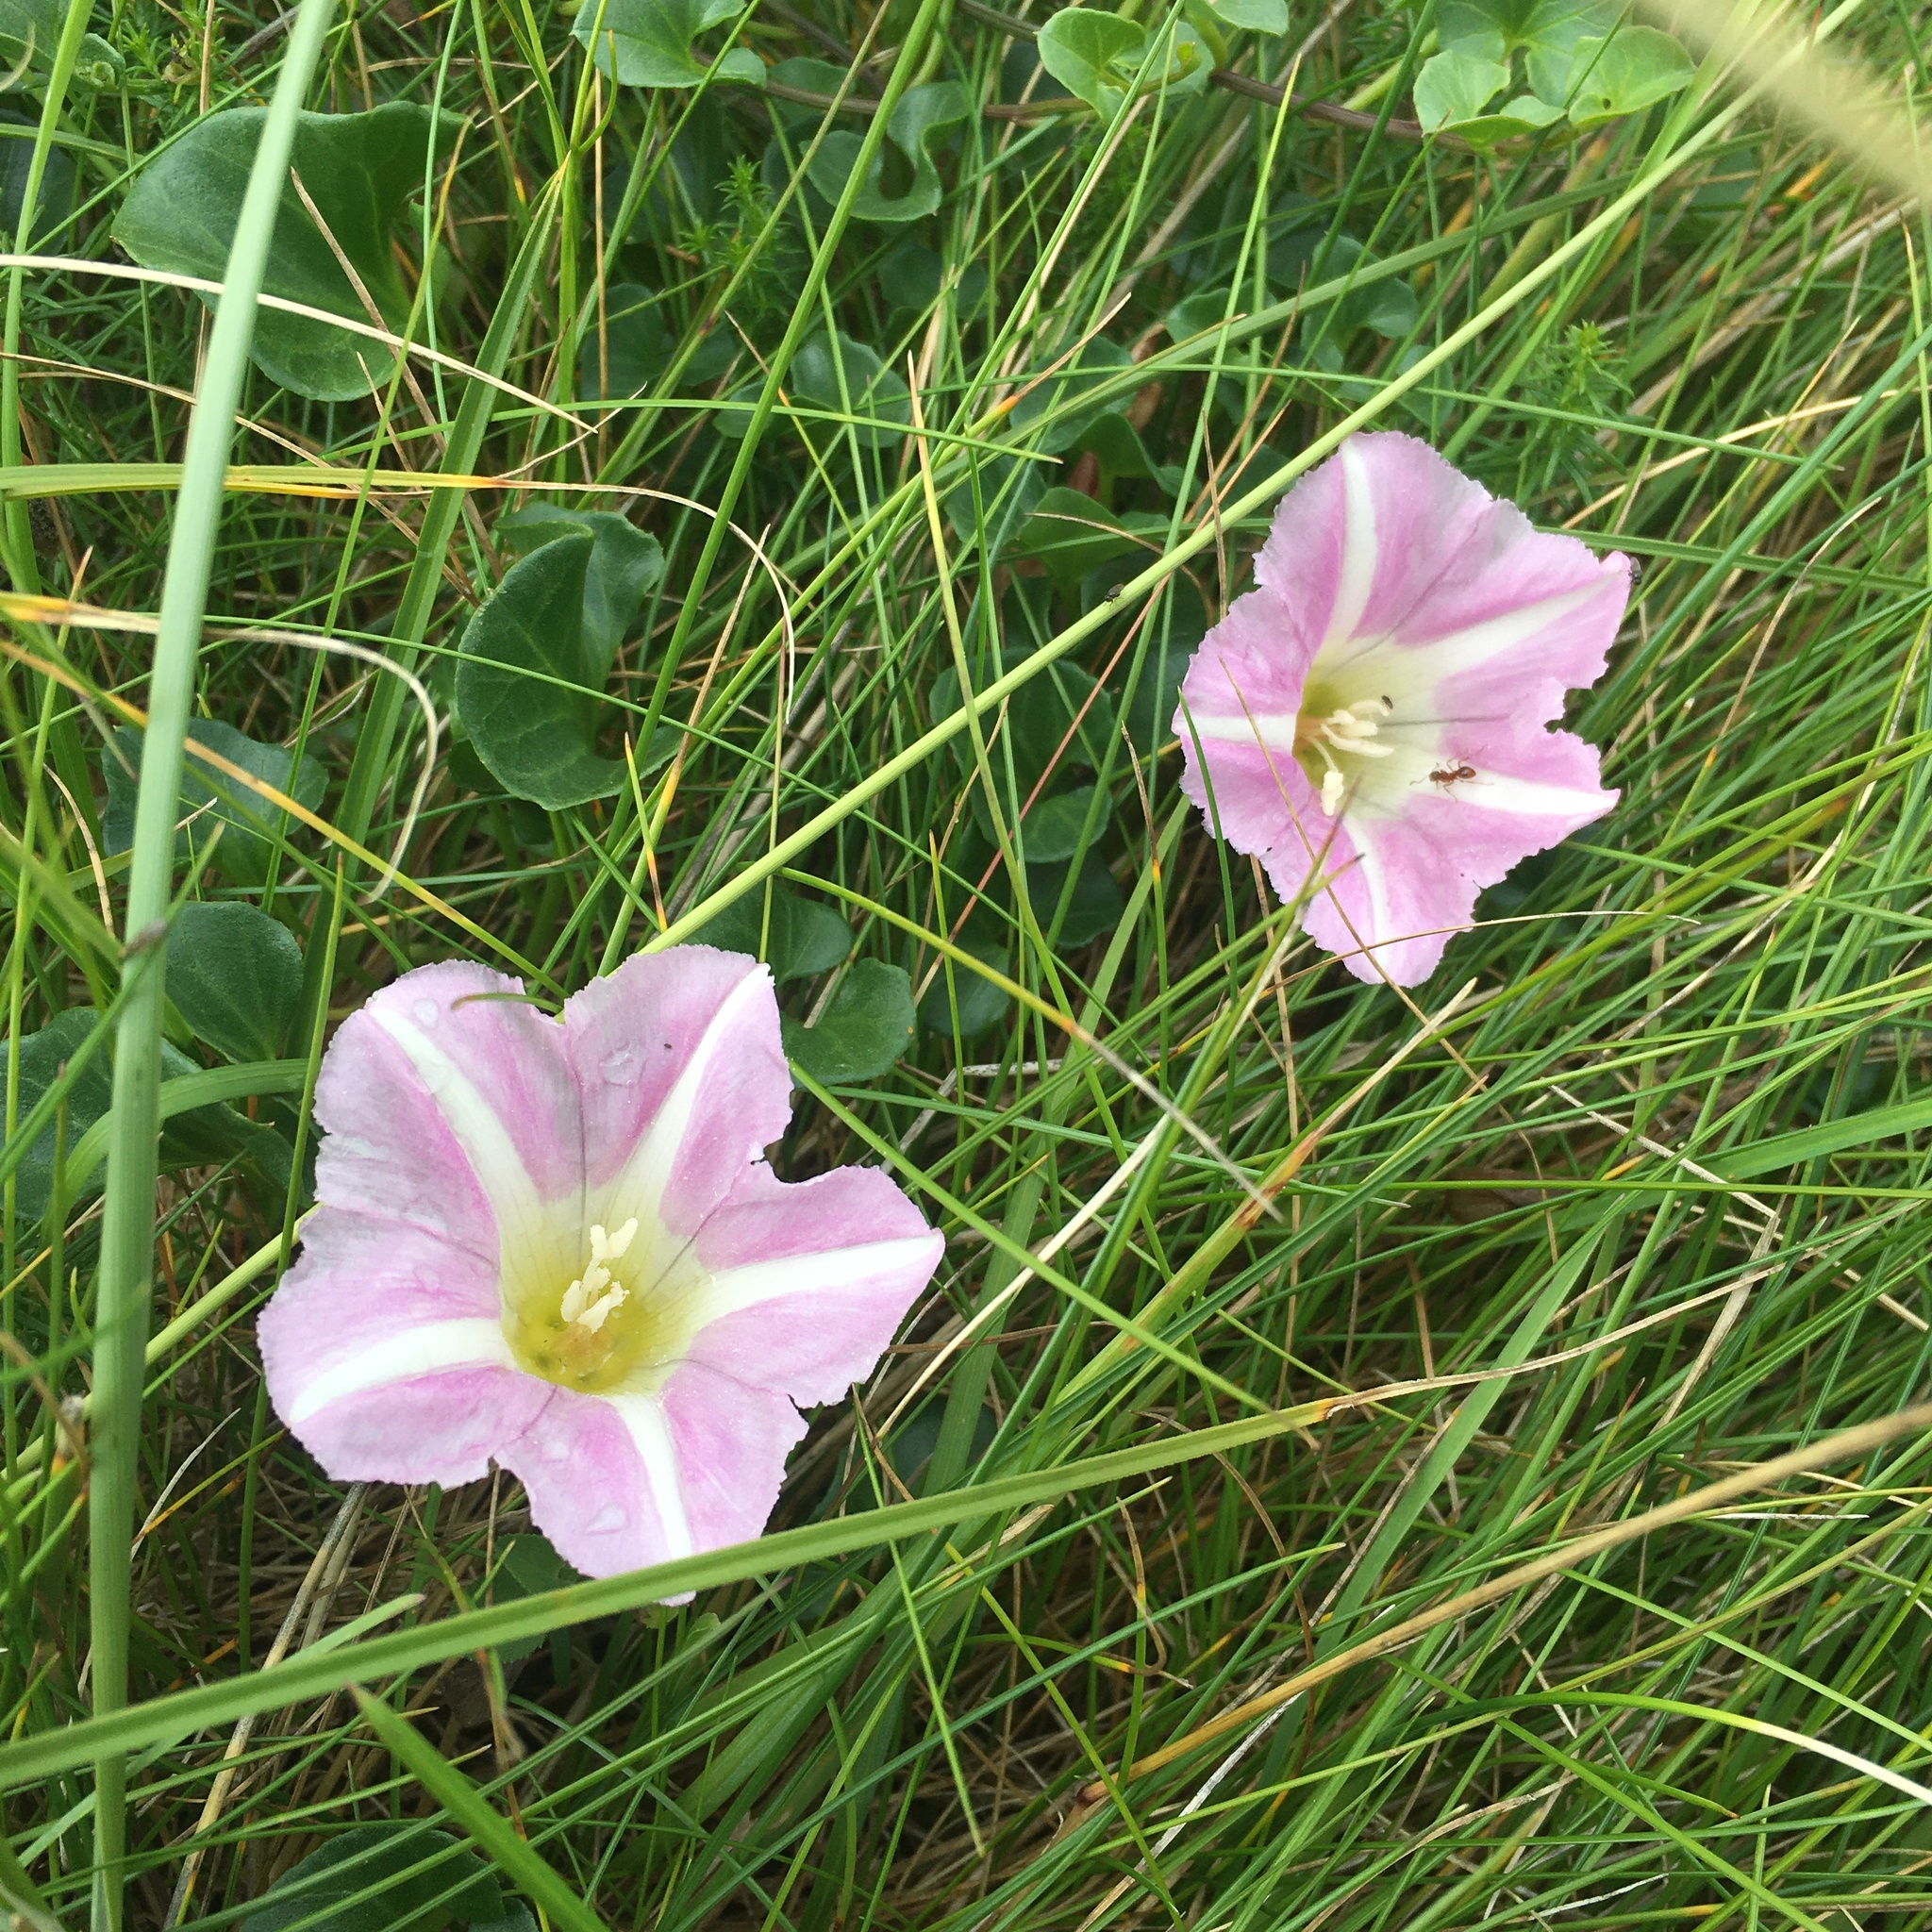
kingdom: Plantae
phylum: Tracheophyta
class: Magnoliopsida
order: Solanales
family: Convolvulaceae
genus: Calystegia
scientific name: Calystegia soldanella
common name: Sea bindweed
